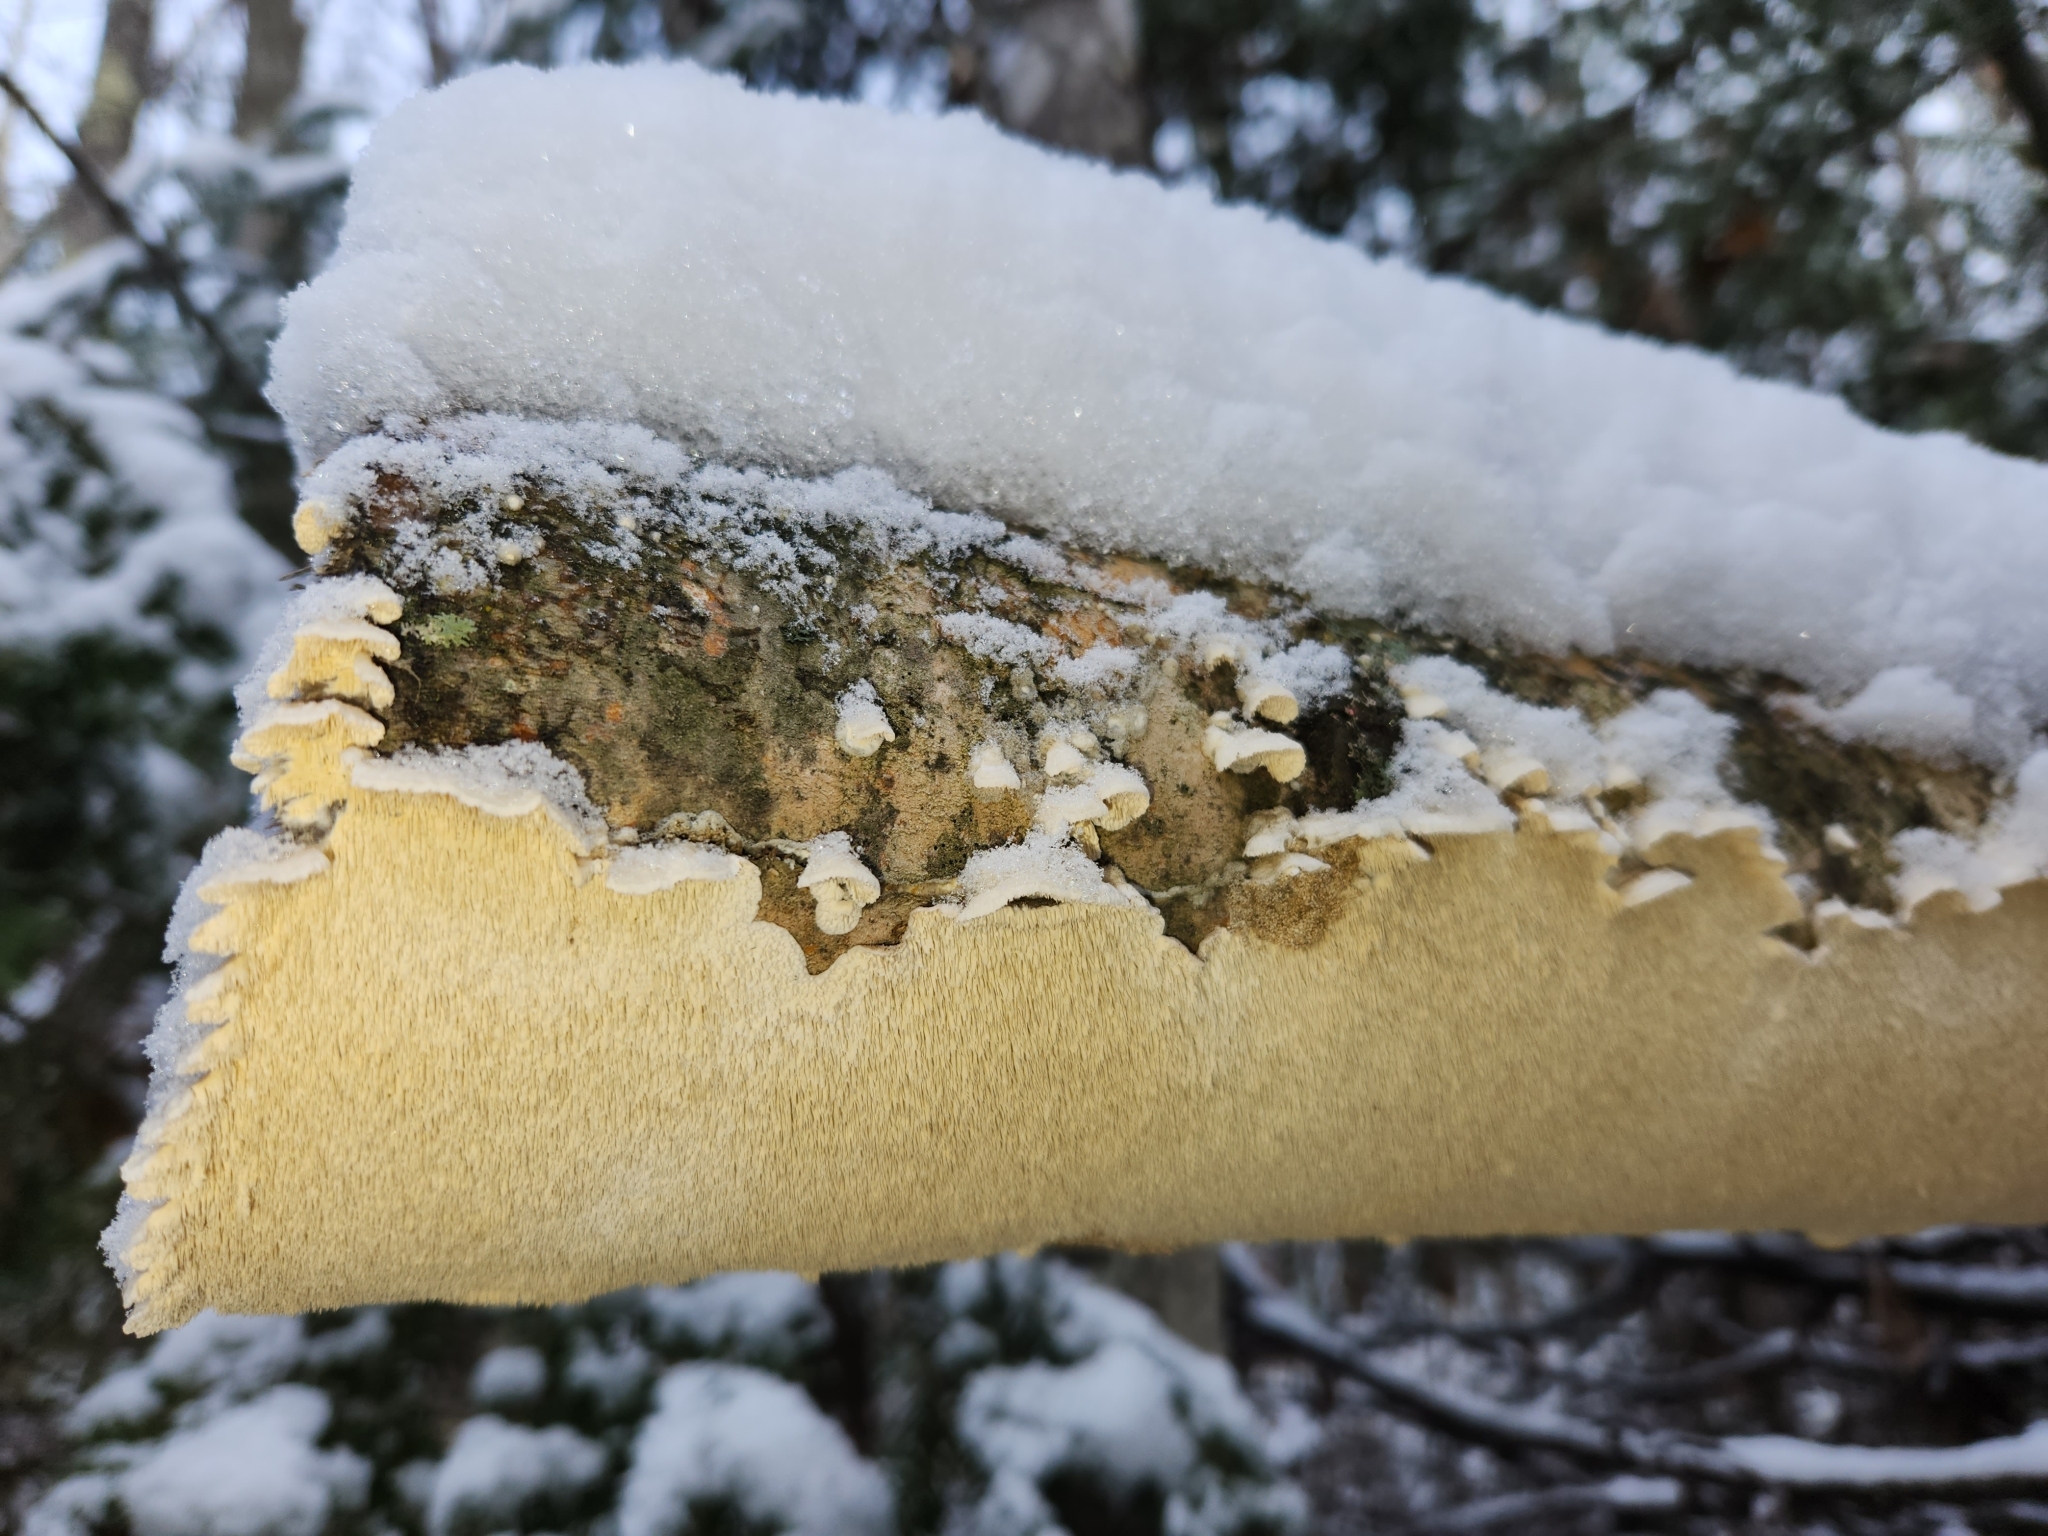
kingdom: Fungi
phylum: Basidiomycota
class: Agaricomycetes
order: Polyporales
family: Irpicaceae
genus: Irpex
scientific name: Irpex lacteus
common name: Milk-white toothed polypore
